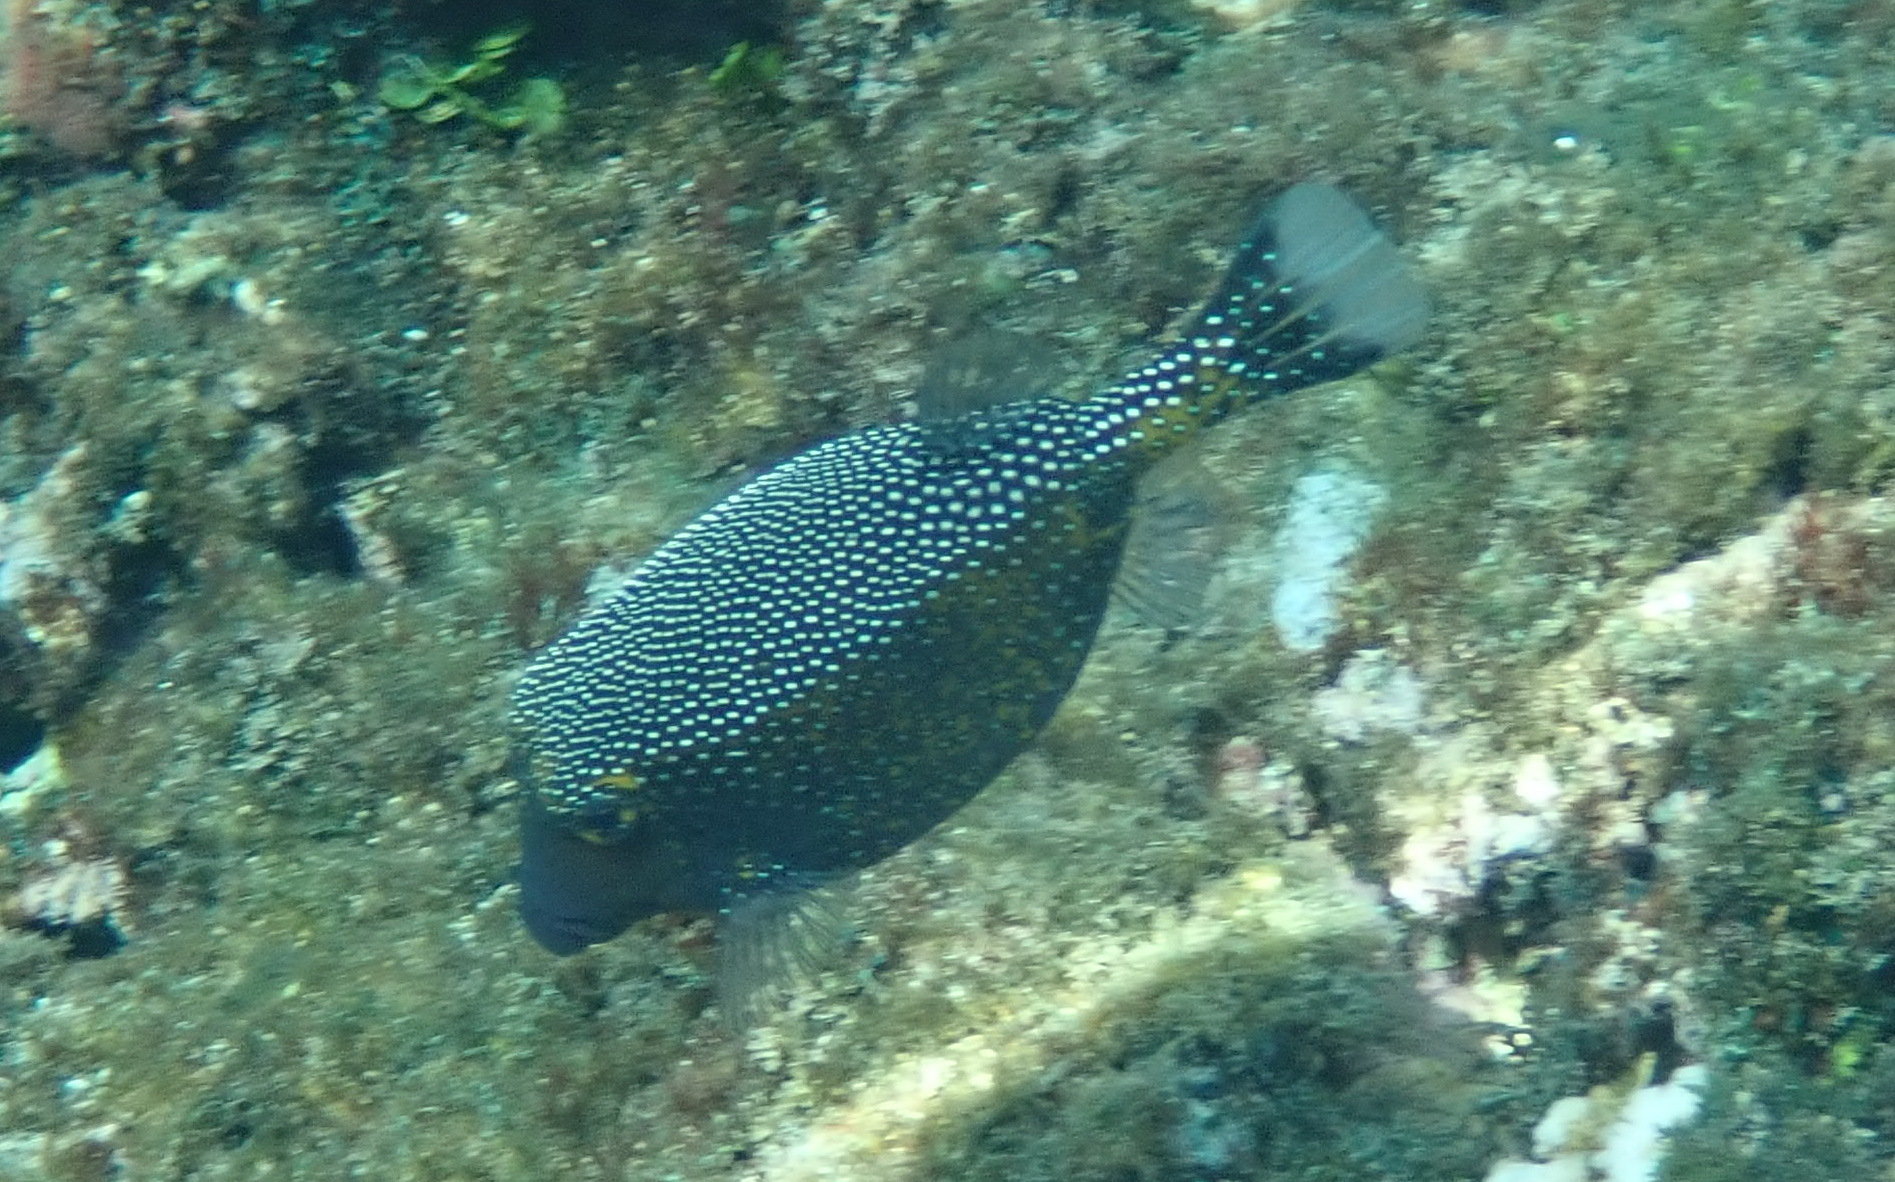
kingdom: Animalia
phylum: Chordata
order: Tetraodontiformes
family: Ostraciidae
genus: Ostracion
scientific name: Ostracion meleagris
